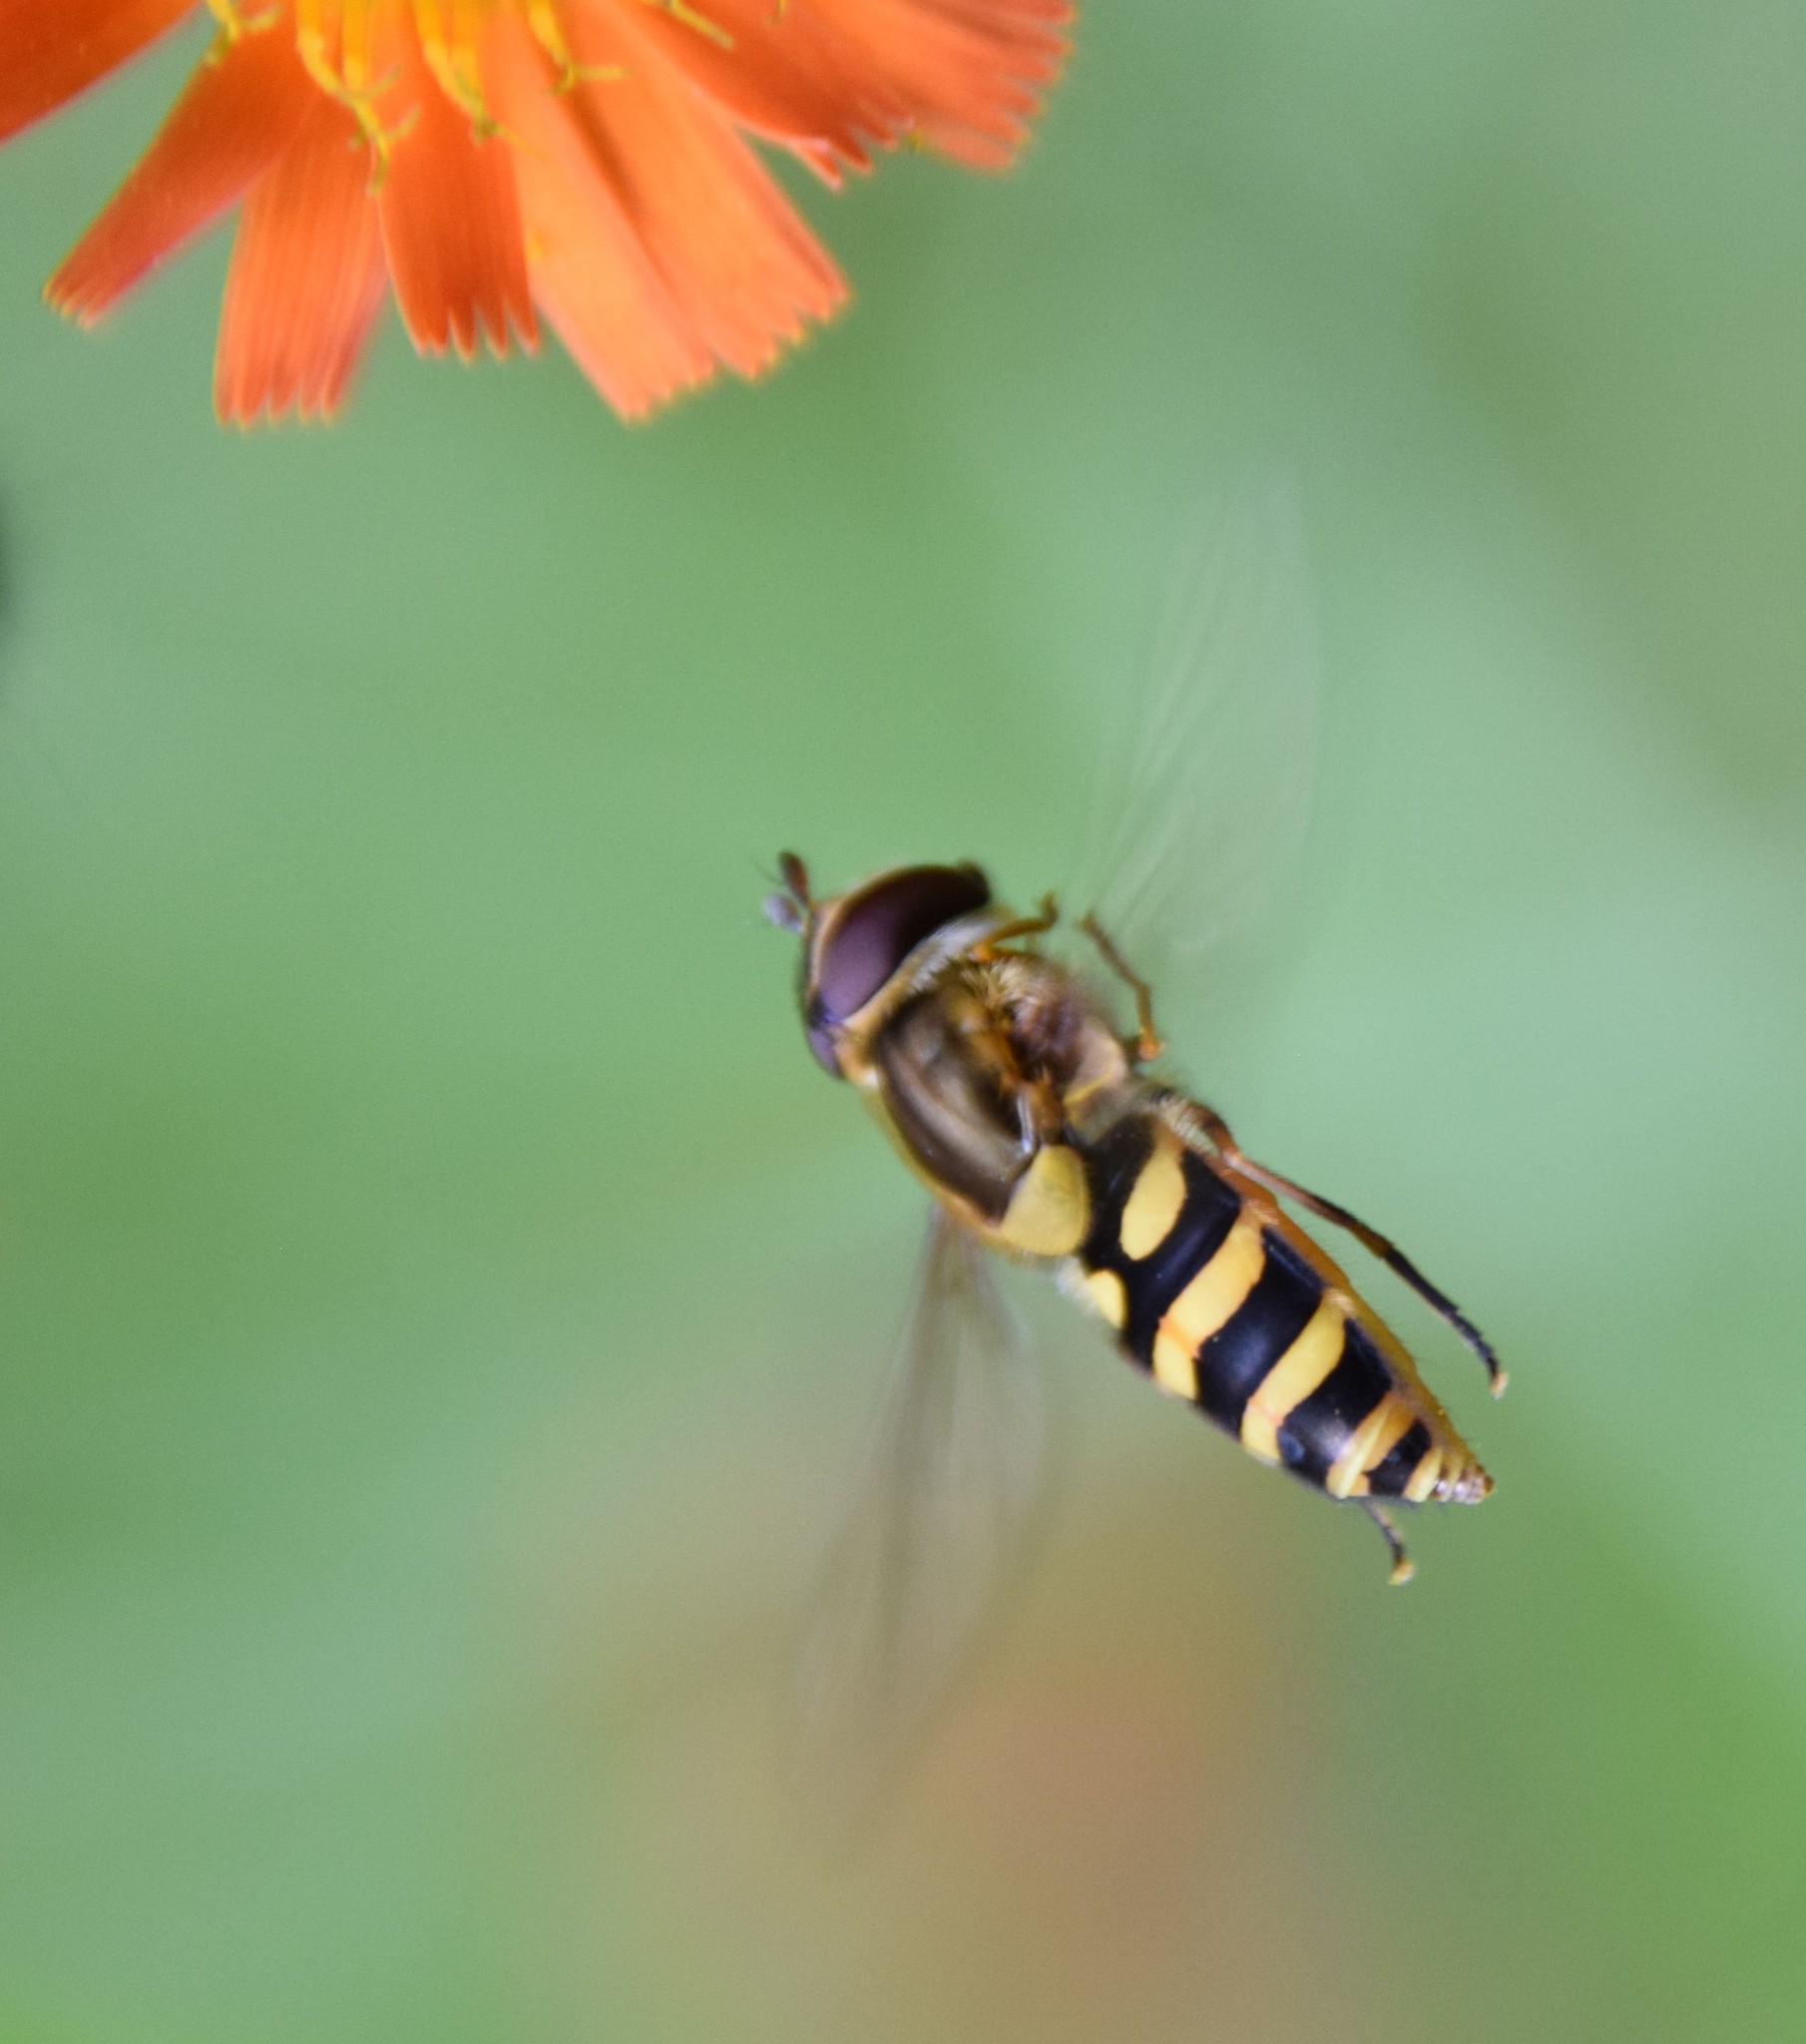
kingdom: Animalia
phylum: Arthropoda
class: Insecta
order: Diptera
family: Syrphidae
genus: Syrphus
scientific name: Syrphus
